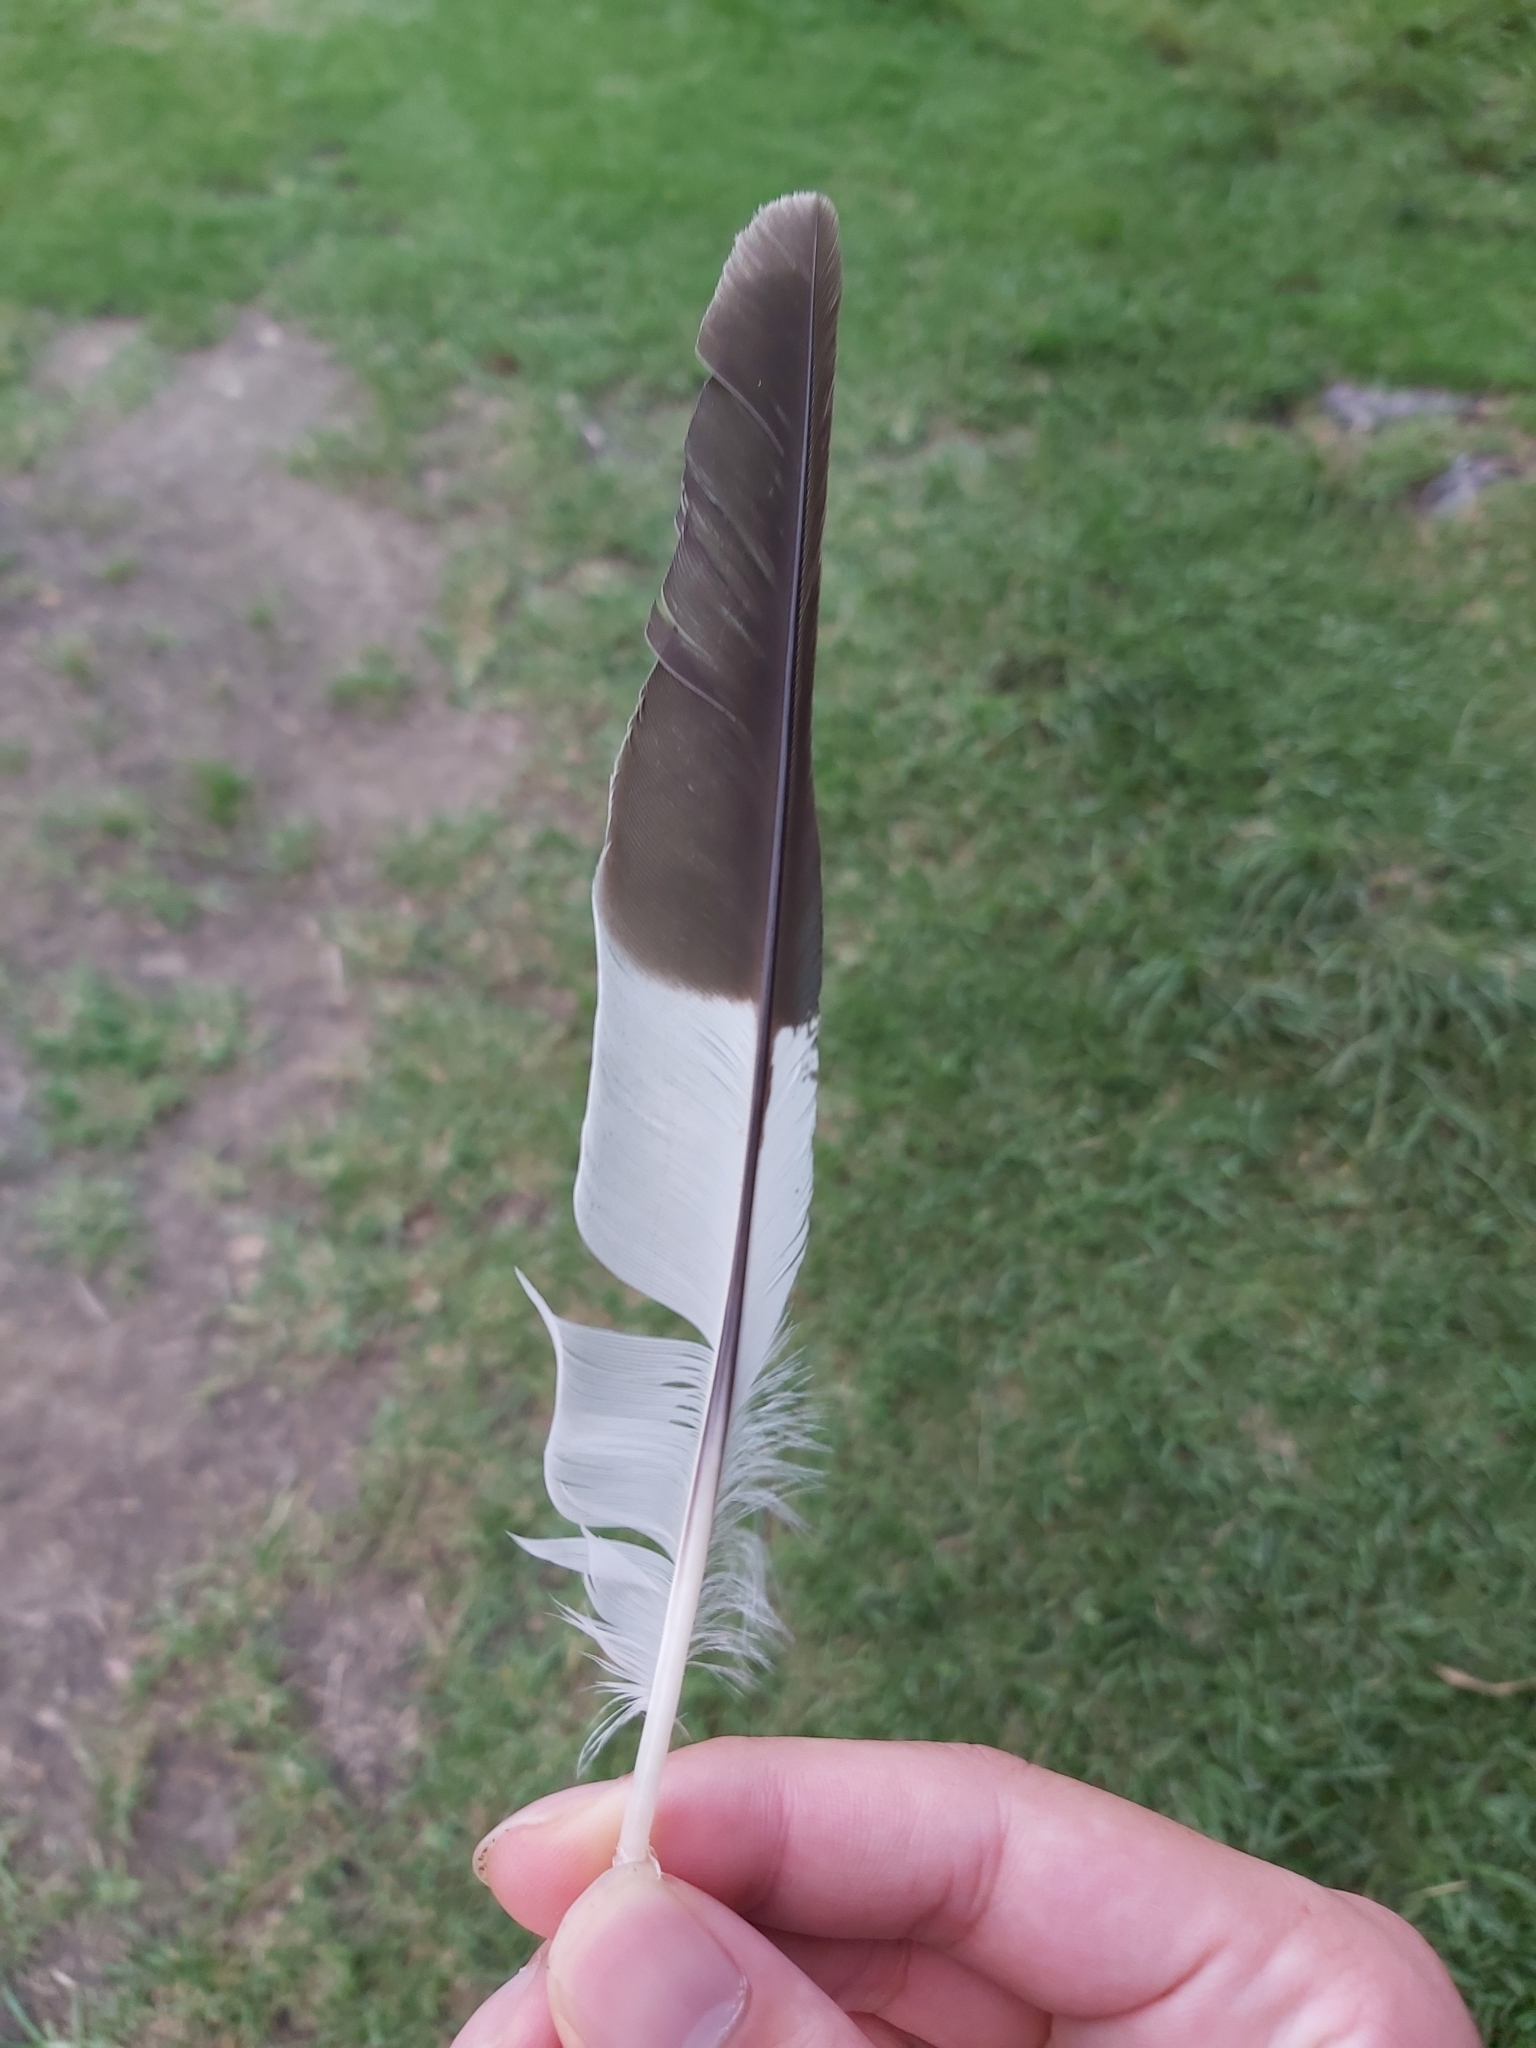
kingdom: Animalia
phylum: Chordata
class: Aves
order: Coraciiformes
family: Alcedinidae
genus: Dacelo
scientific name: Dacelo novaeguineae
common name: Laughing kookaburra
